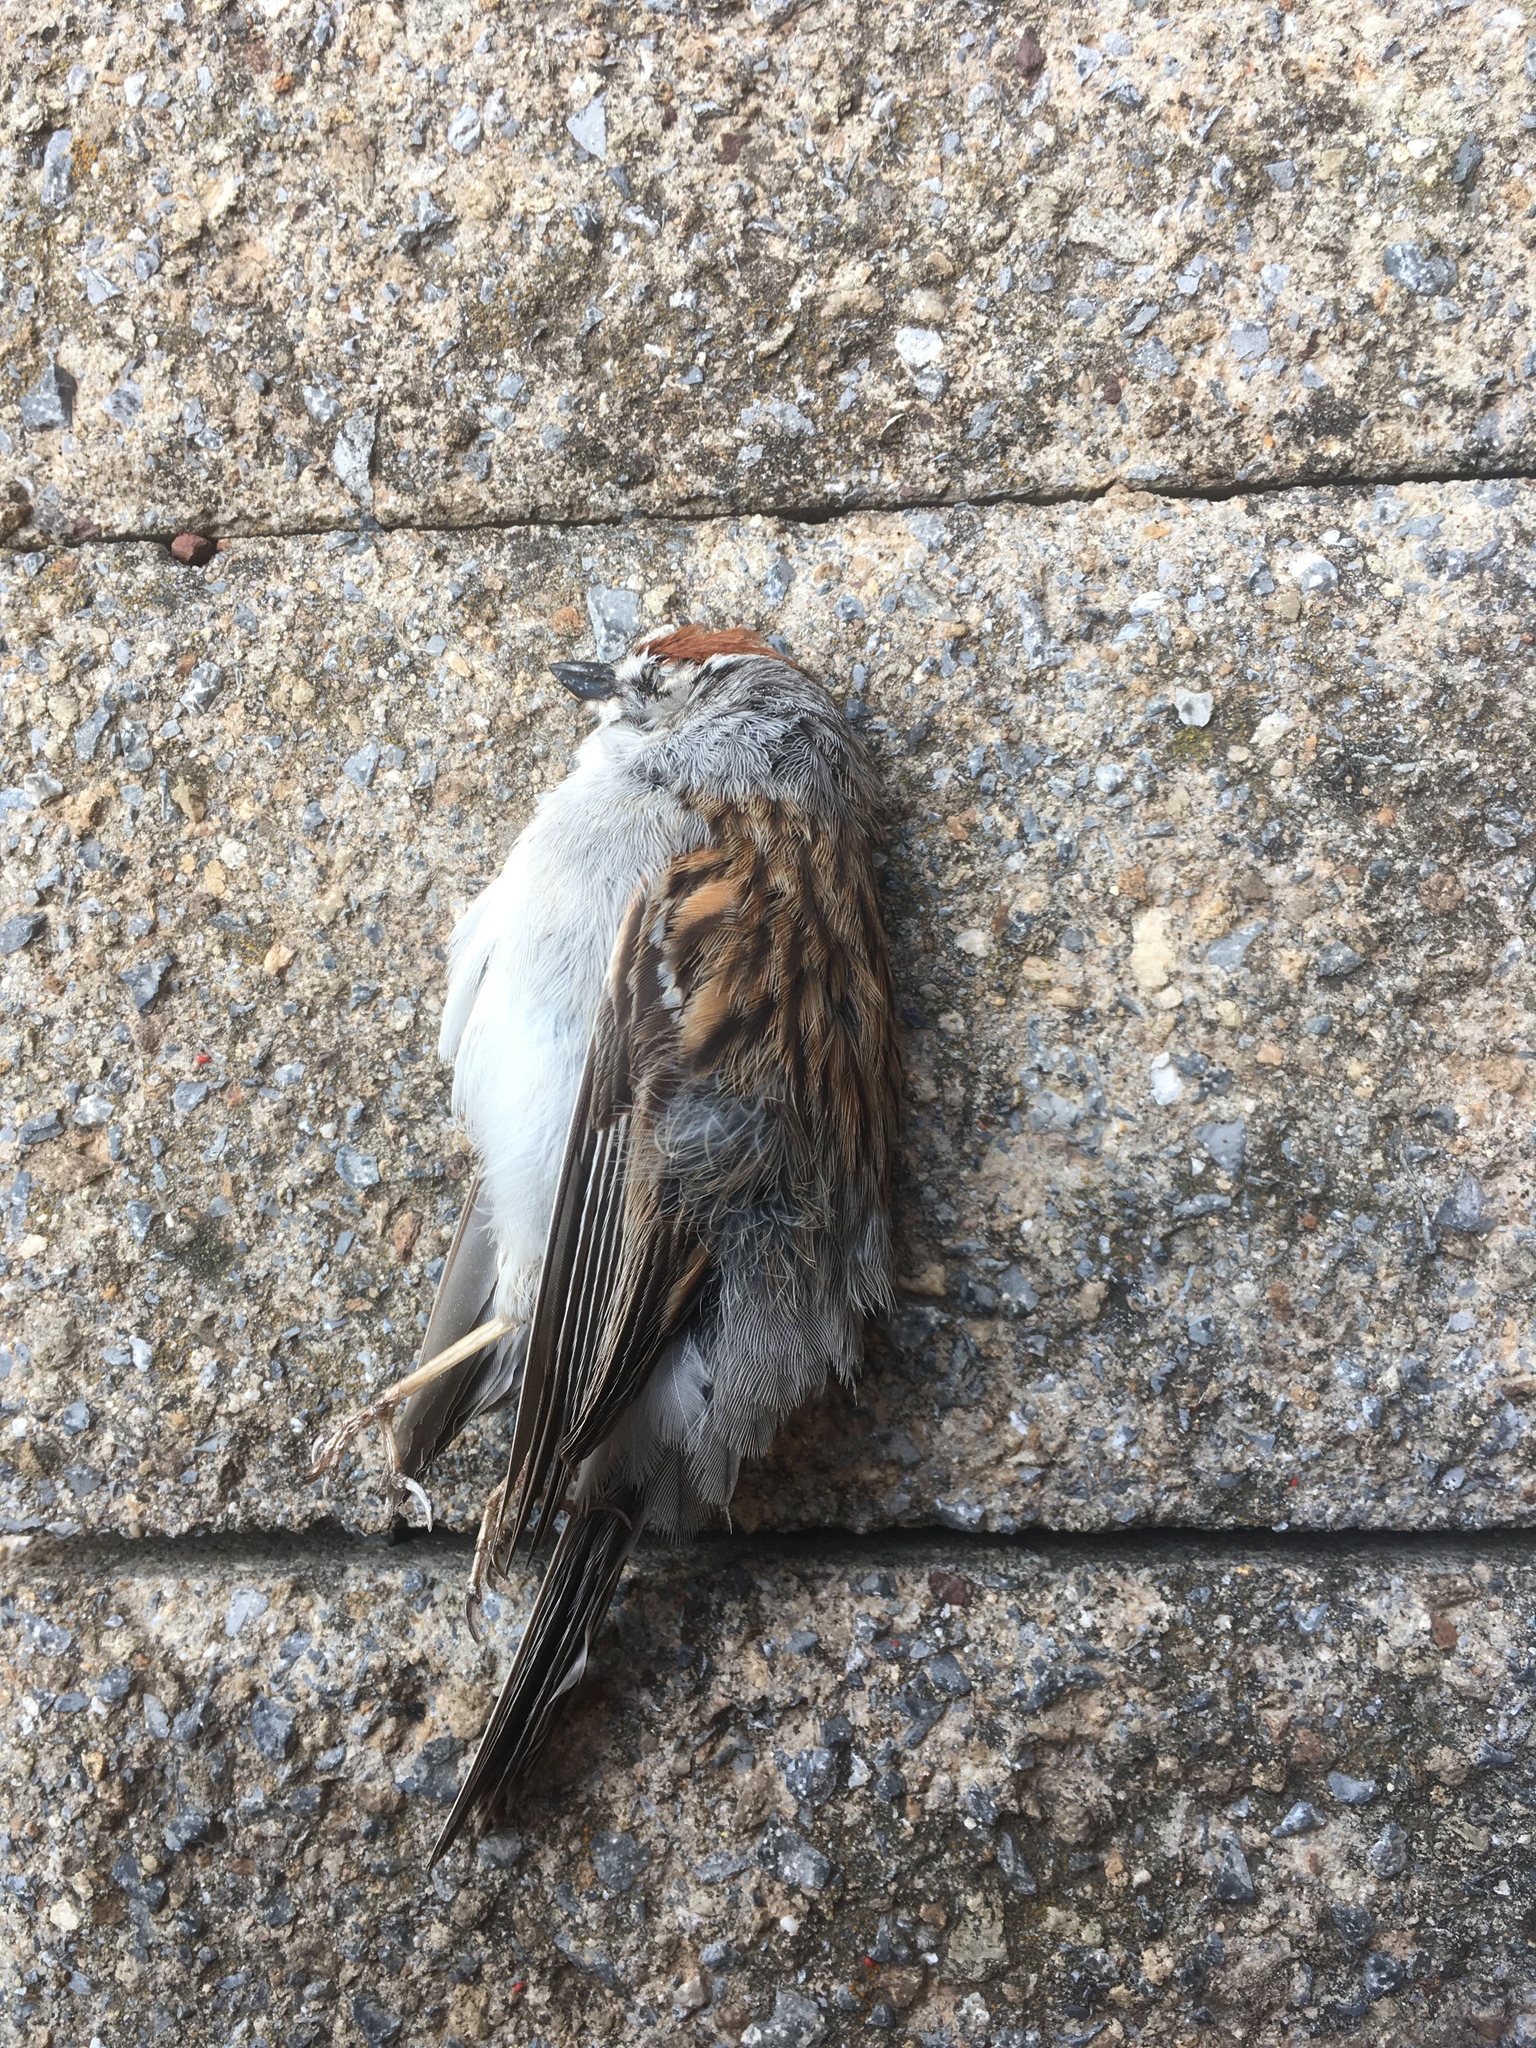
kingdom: Animalia
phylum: Chordata
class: Aves
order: Passeriformes
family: Passerellidae
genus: Spizella
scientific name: Spizella passerina
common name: Chipping sparrow
